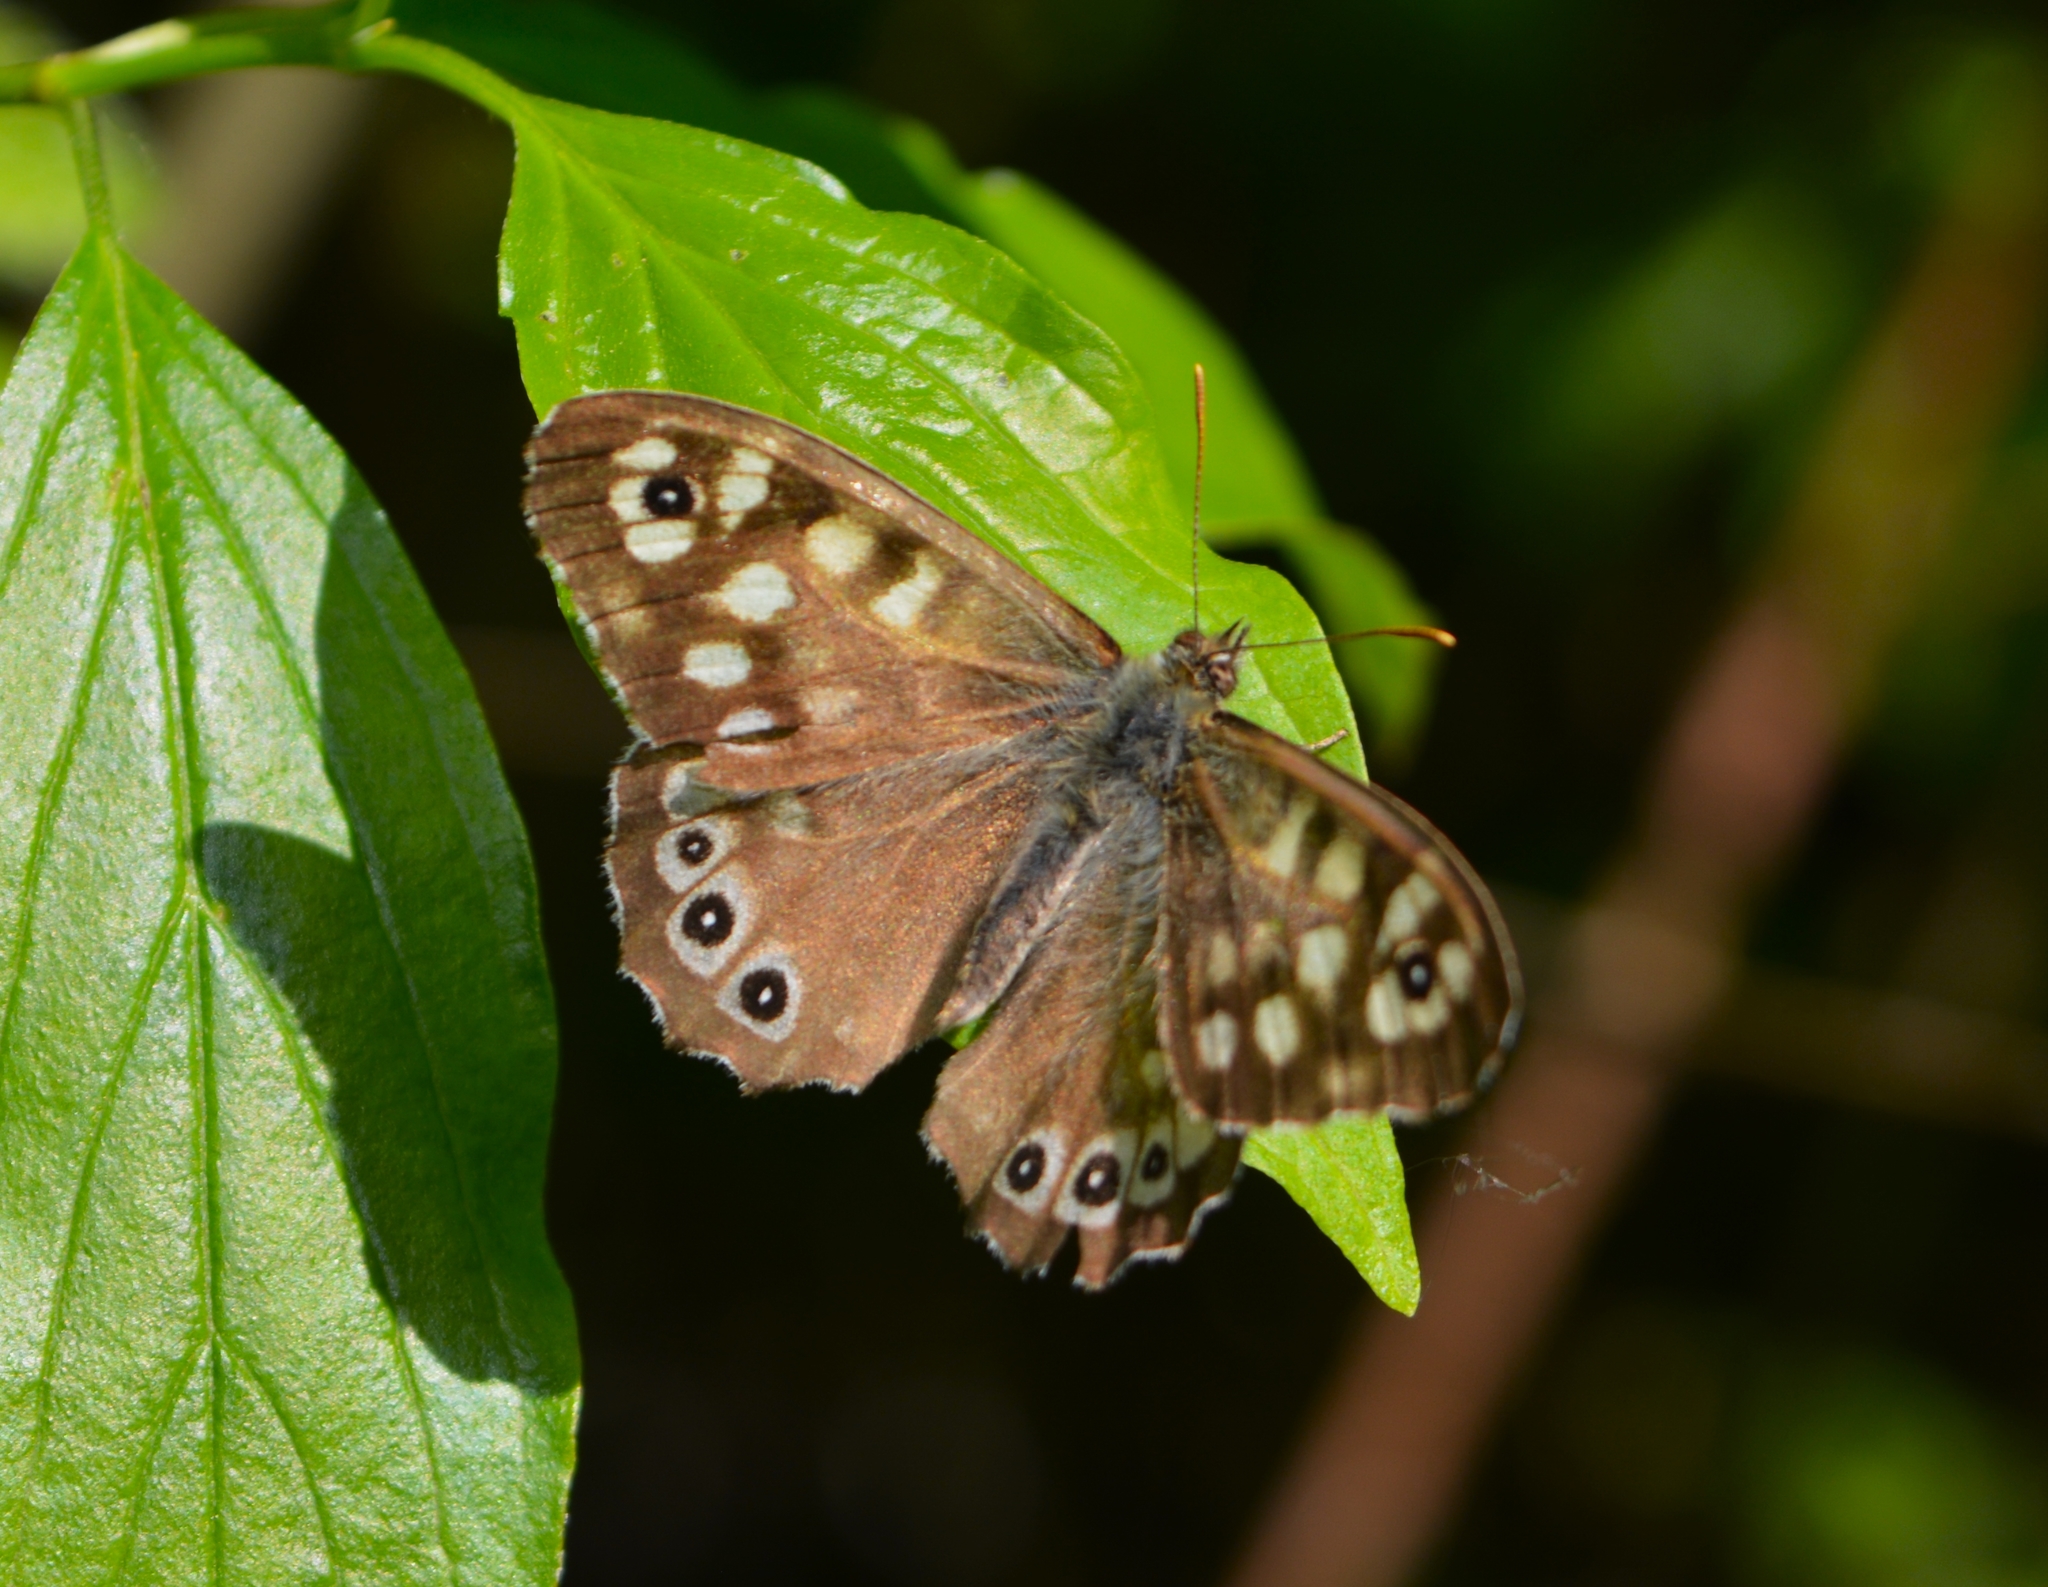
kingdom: Animalia
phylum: Arthropoda
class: Insecta
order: Lepidoptera
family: Nymphalidae
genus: Pararge
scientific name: Pararge aegeria
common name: Speckled wood
